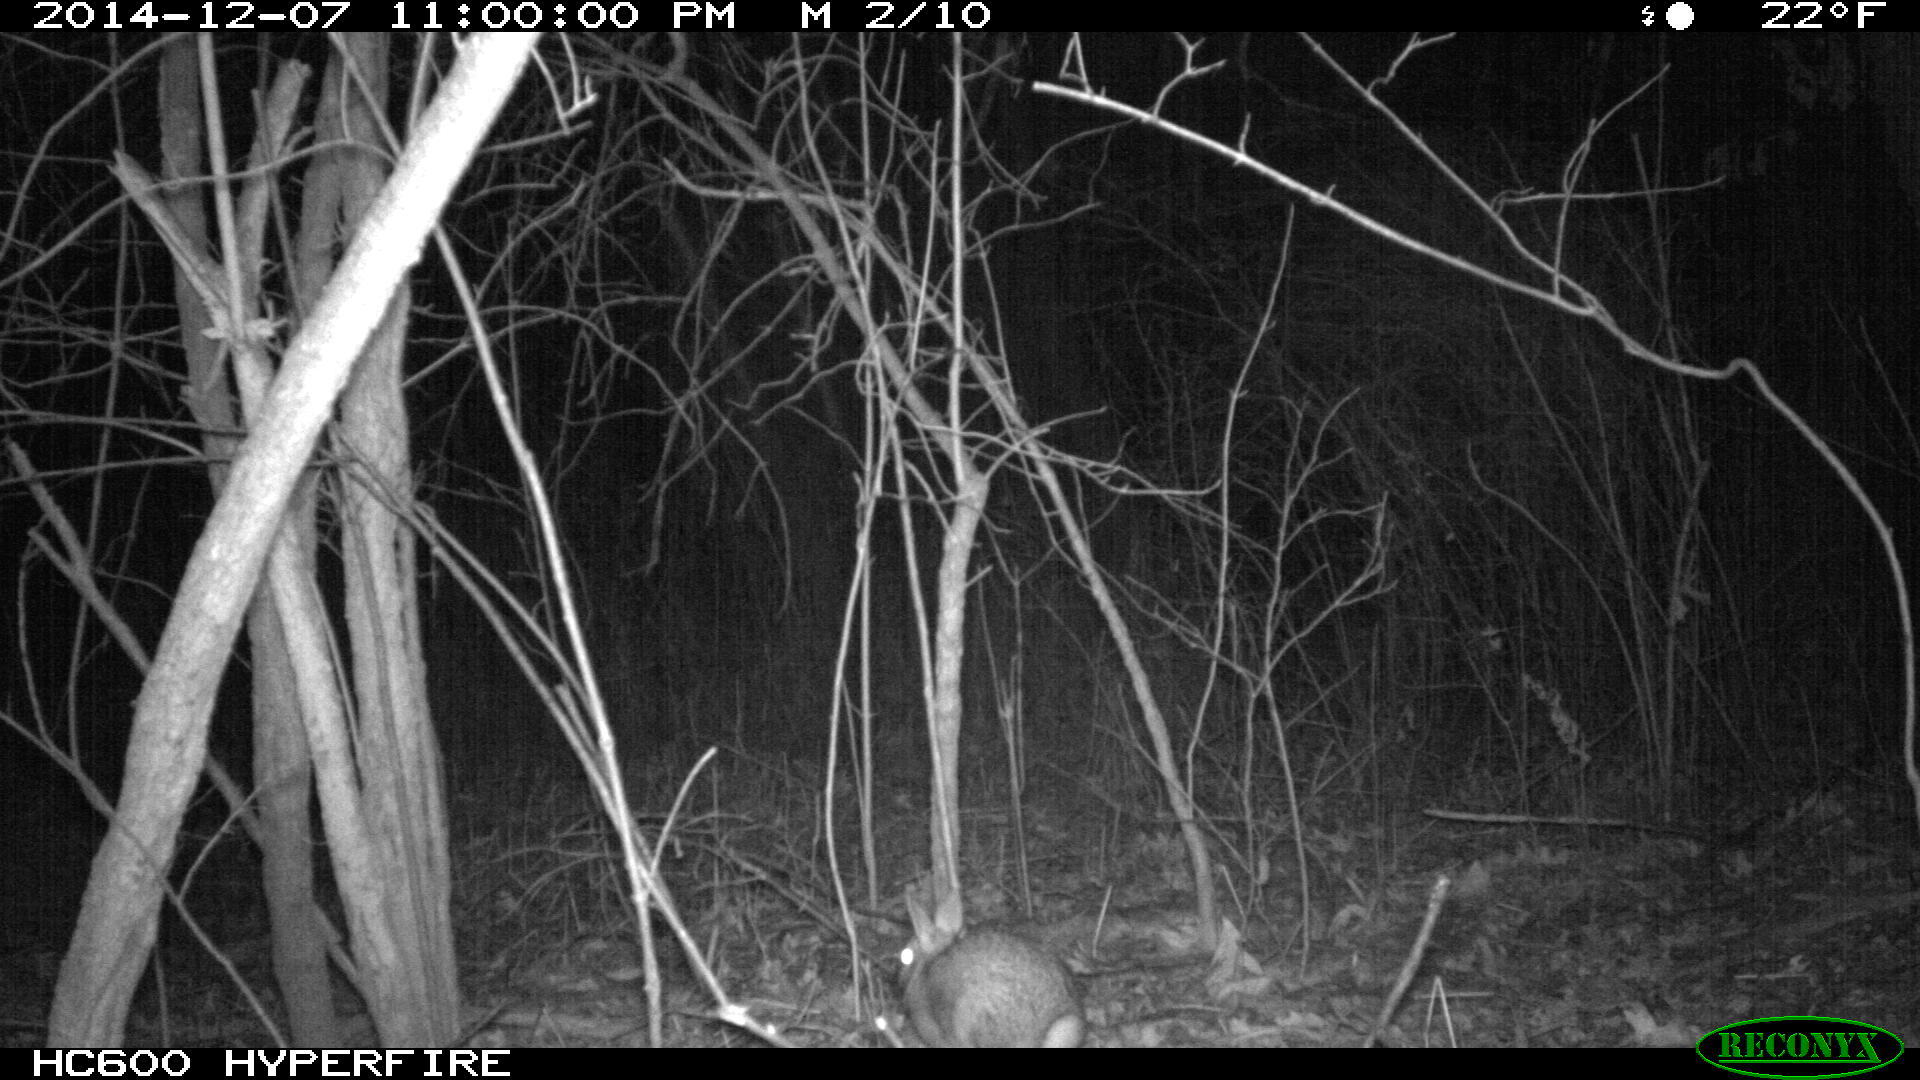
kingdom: Animalia
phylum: Chordata
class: Mammalia
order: Lagomorpha
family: Leporidae
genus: Sylvilagus
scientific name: Sylvilagus floridanus
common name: Eastern cottontail
